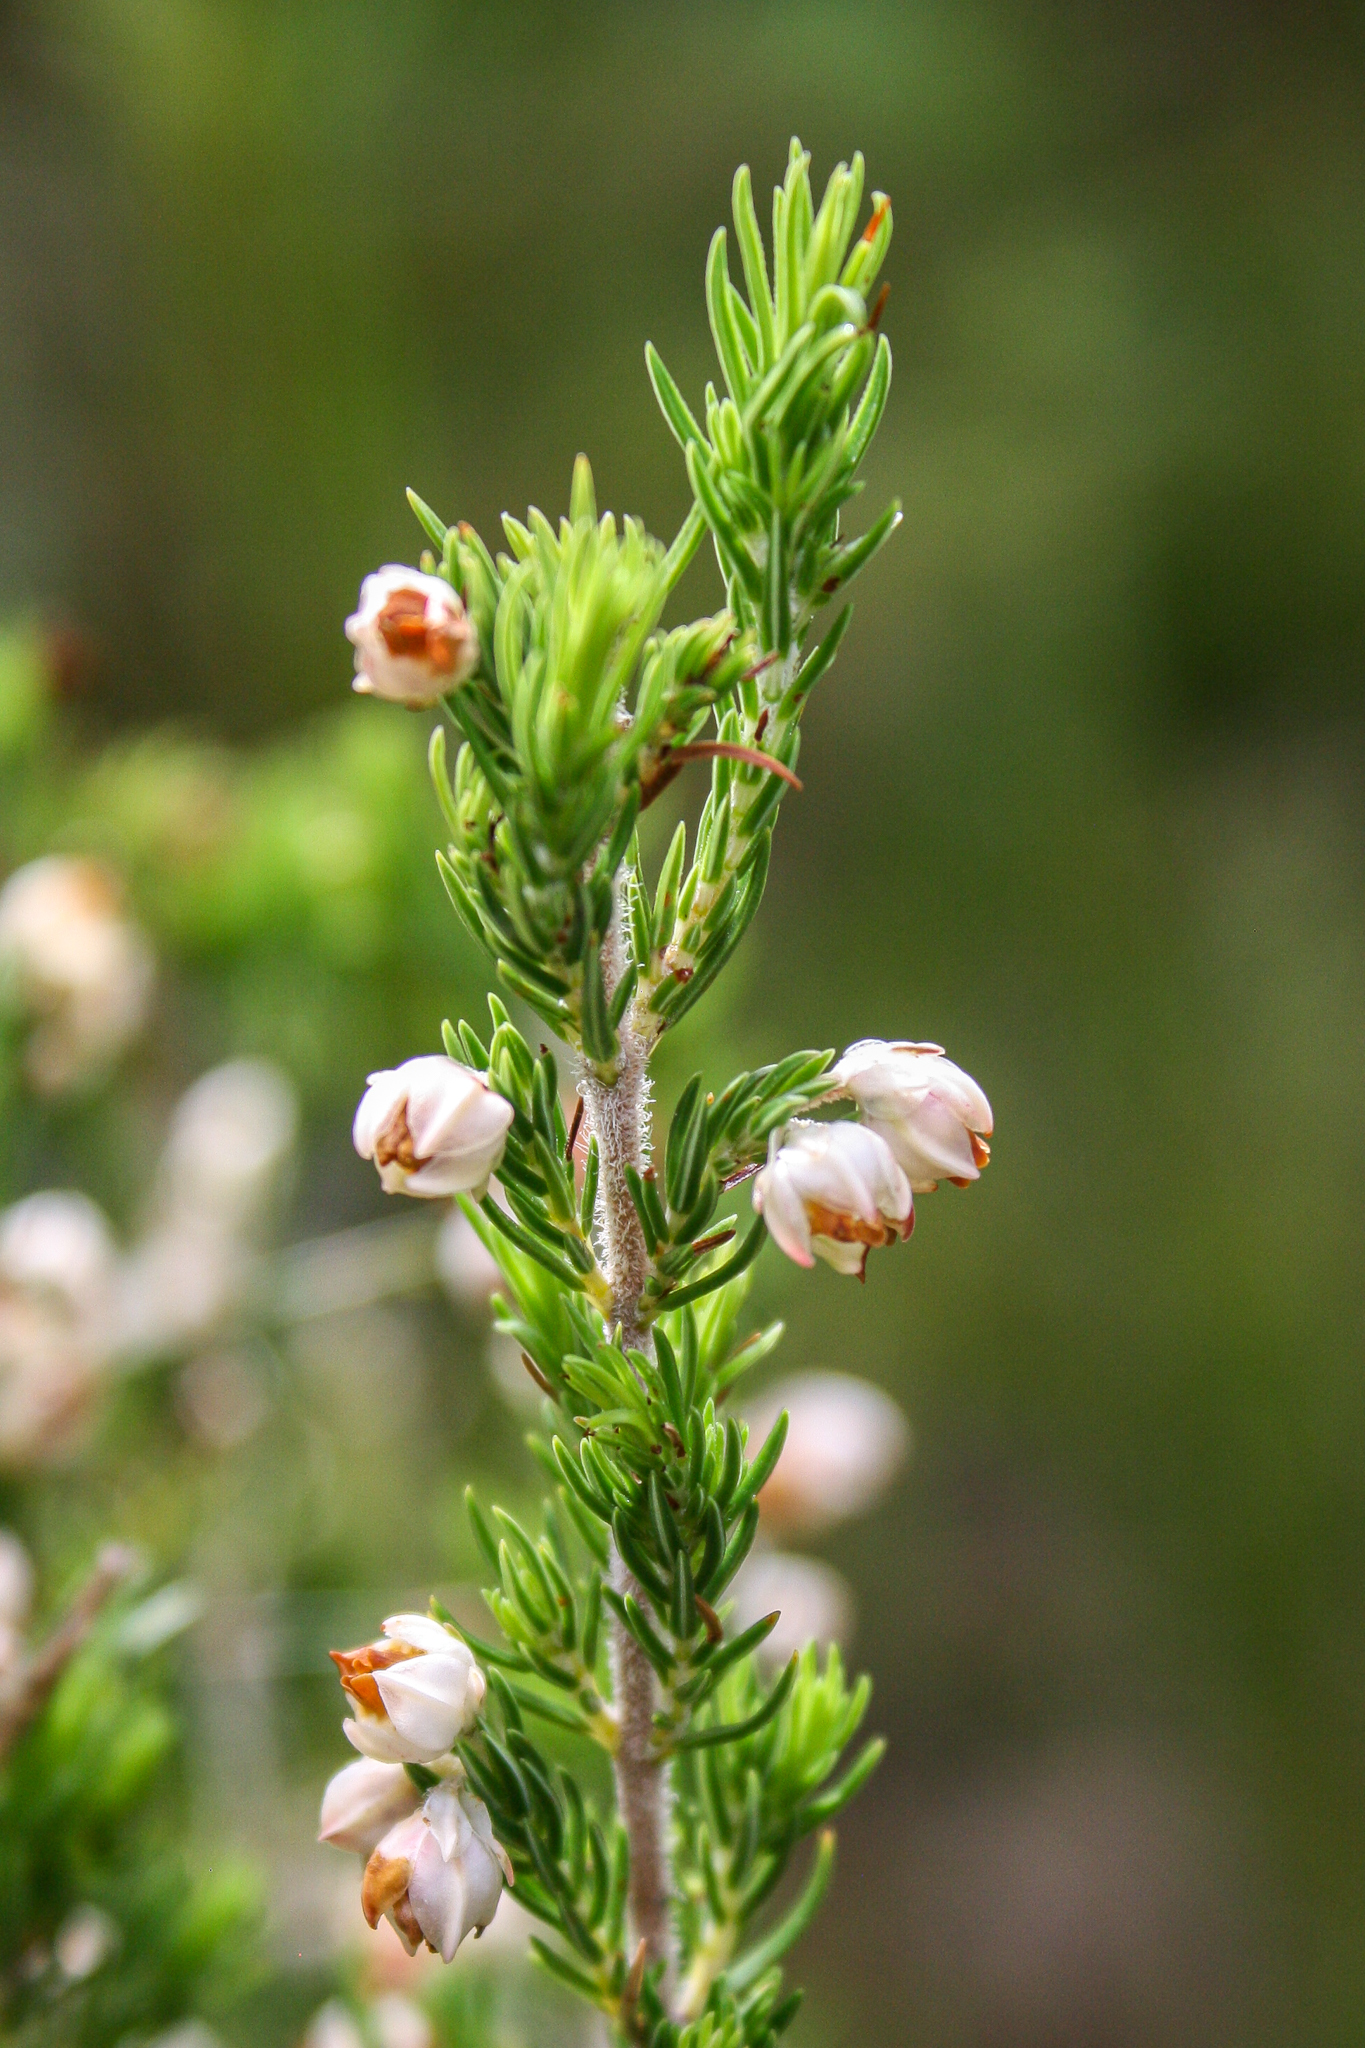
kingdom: Plantae
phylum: Tracheophyta
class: Magnoliopsida
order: Ericales
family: Ericaceae
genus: Erica
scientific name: Erica triflora
